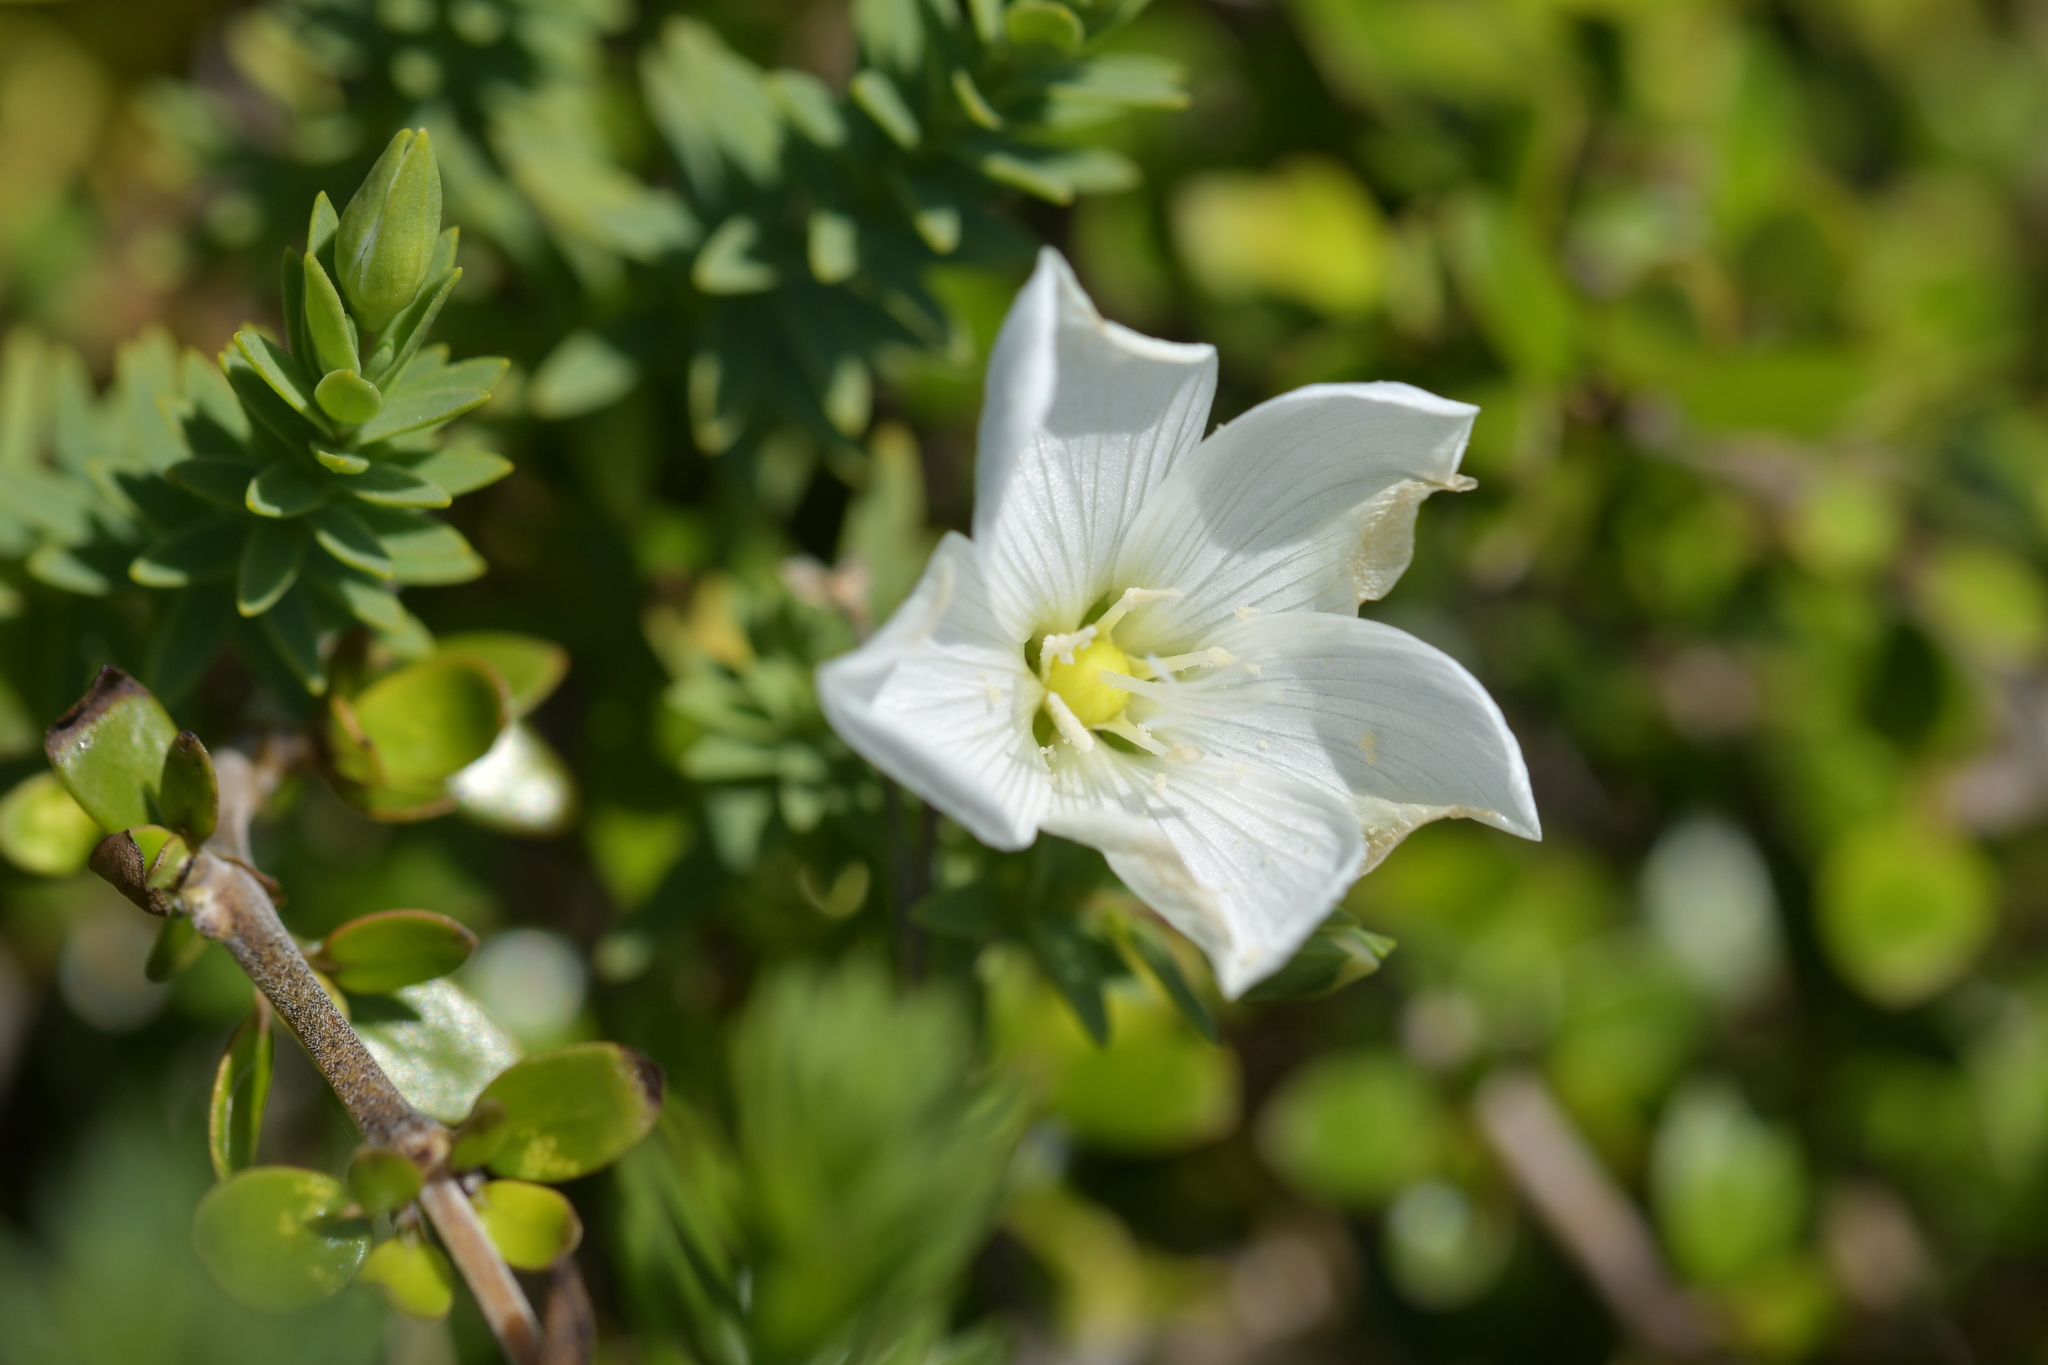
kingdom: Plantae
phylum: Tracheophyta
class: Magnoliopsida
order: Malpighiales
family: Linaceae
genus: Linum
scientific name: Linum monogynum
